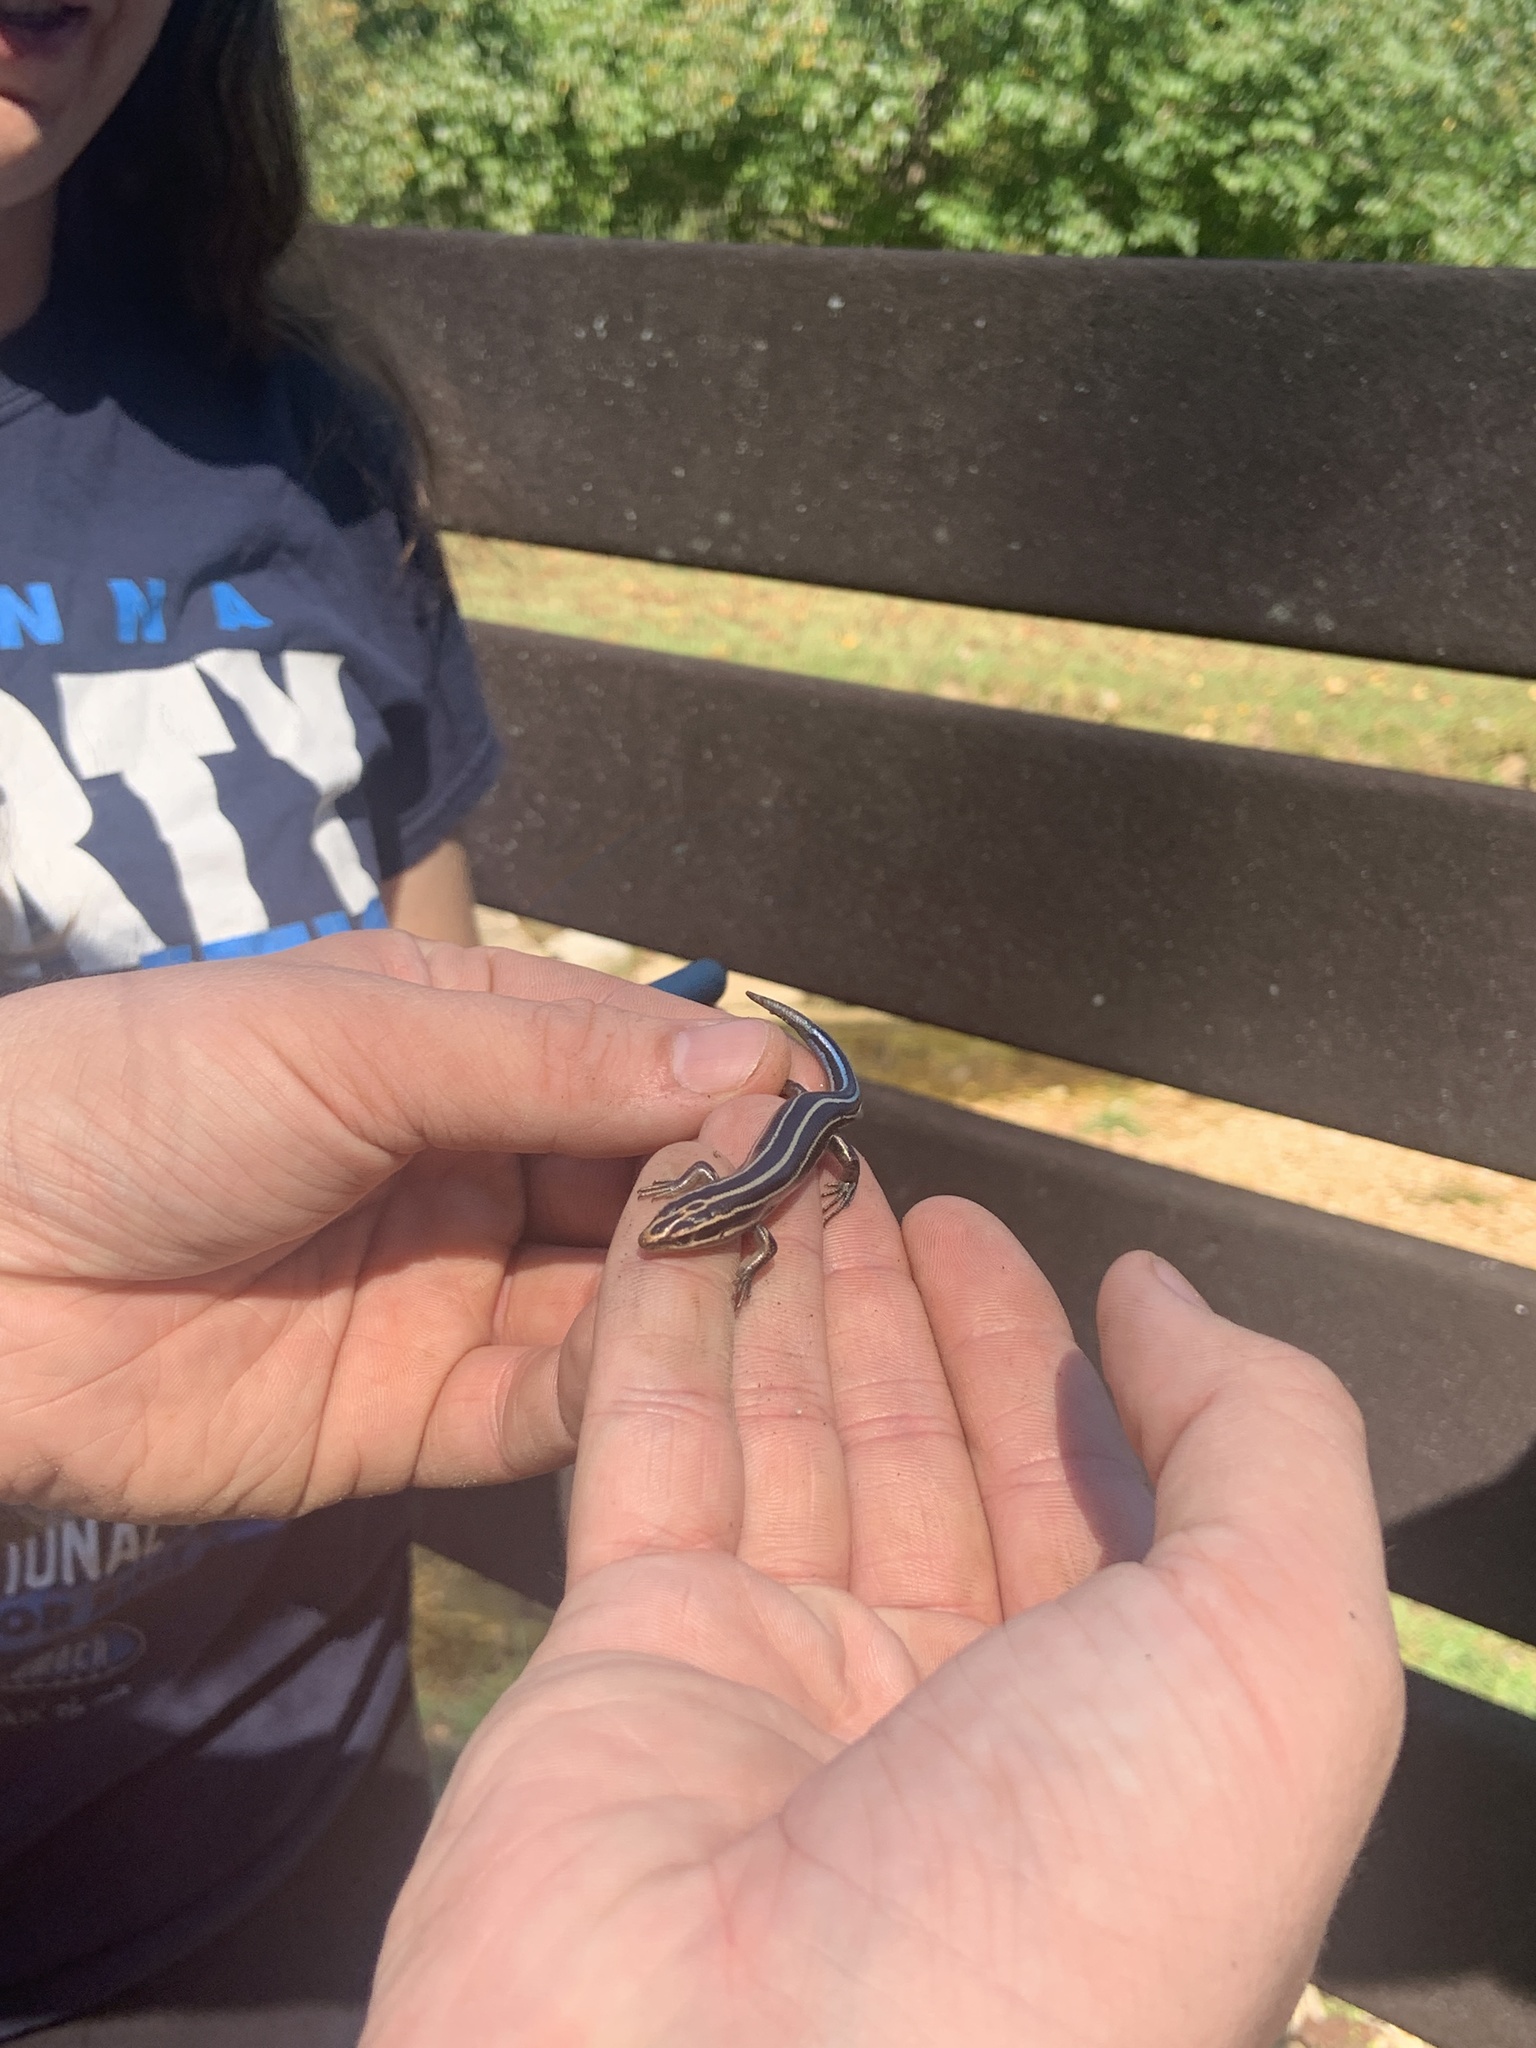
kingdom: Animalia
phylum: Chordata
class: Squamata
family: Scincidae
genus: Plestiodon
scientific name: Plestiodon fasciatus
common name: Five-lined skink
